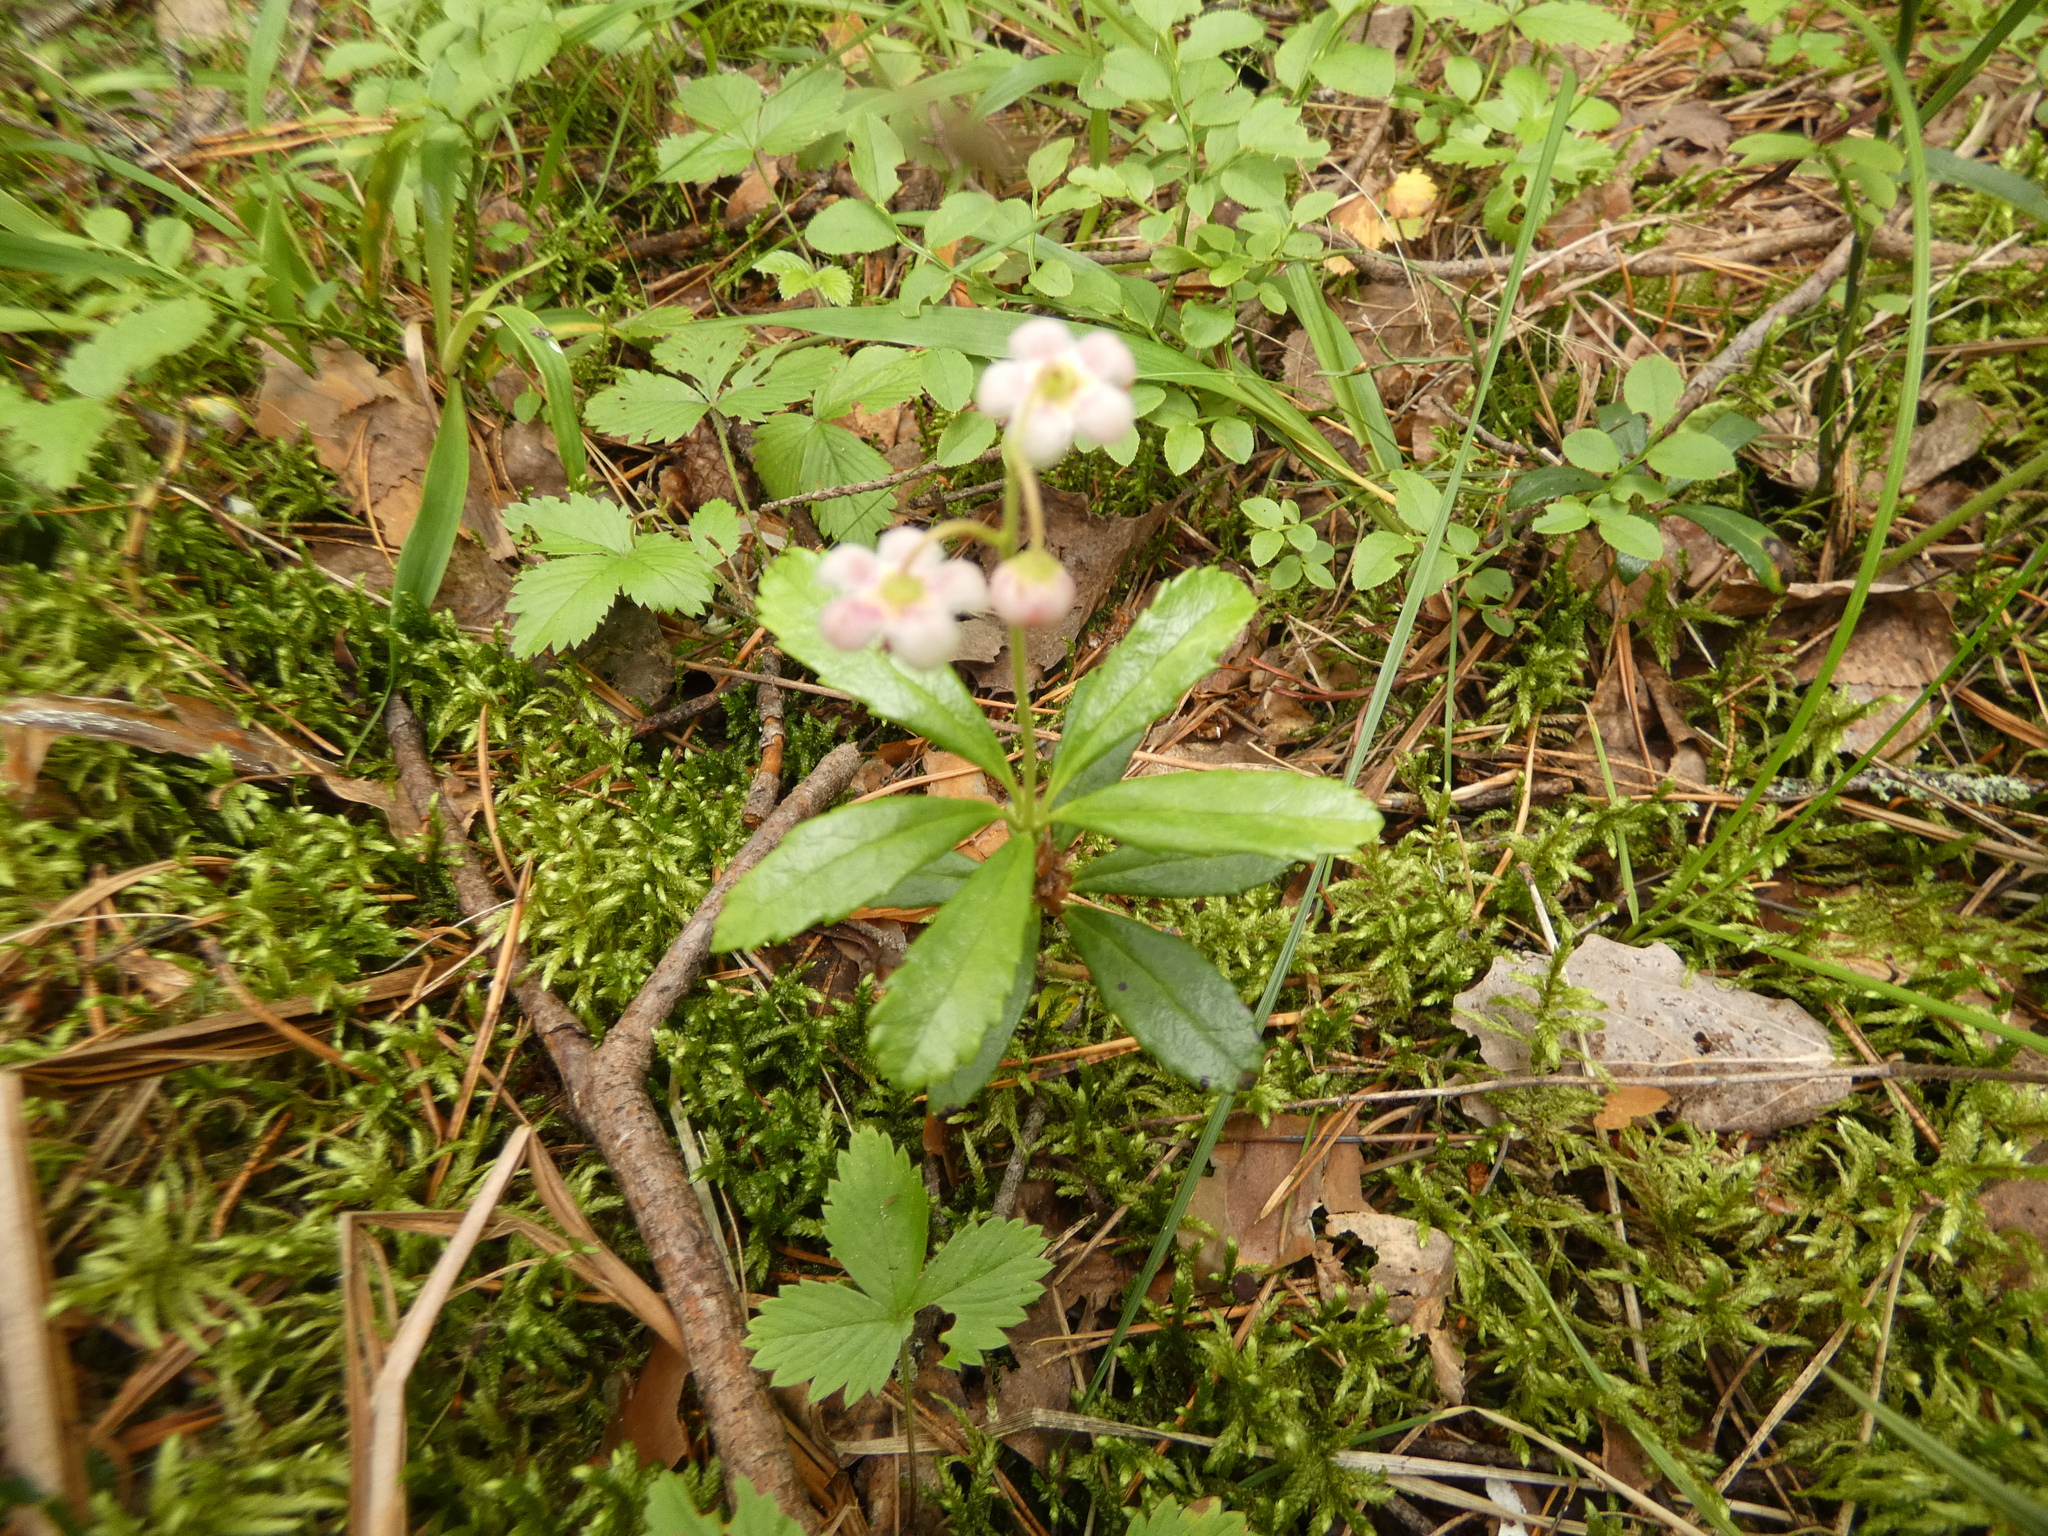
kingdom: Plantae
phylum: Tracheophyta
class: Magnoliopsida
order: Ericales
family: Ericaceae
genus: Chimaphila
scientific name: Chimaphila umbellata
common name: Pipsissewa
